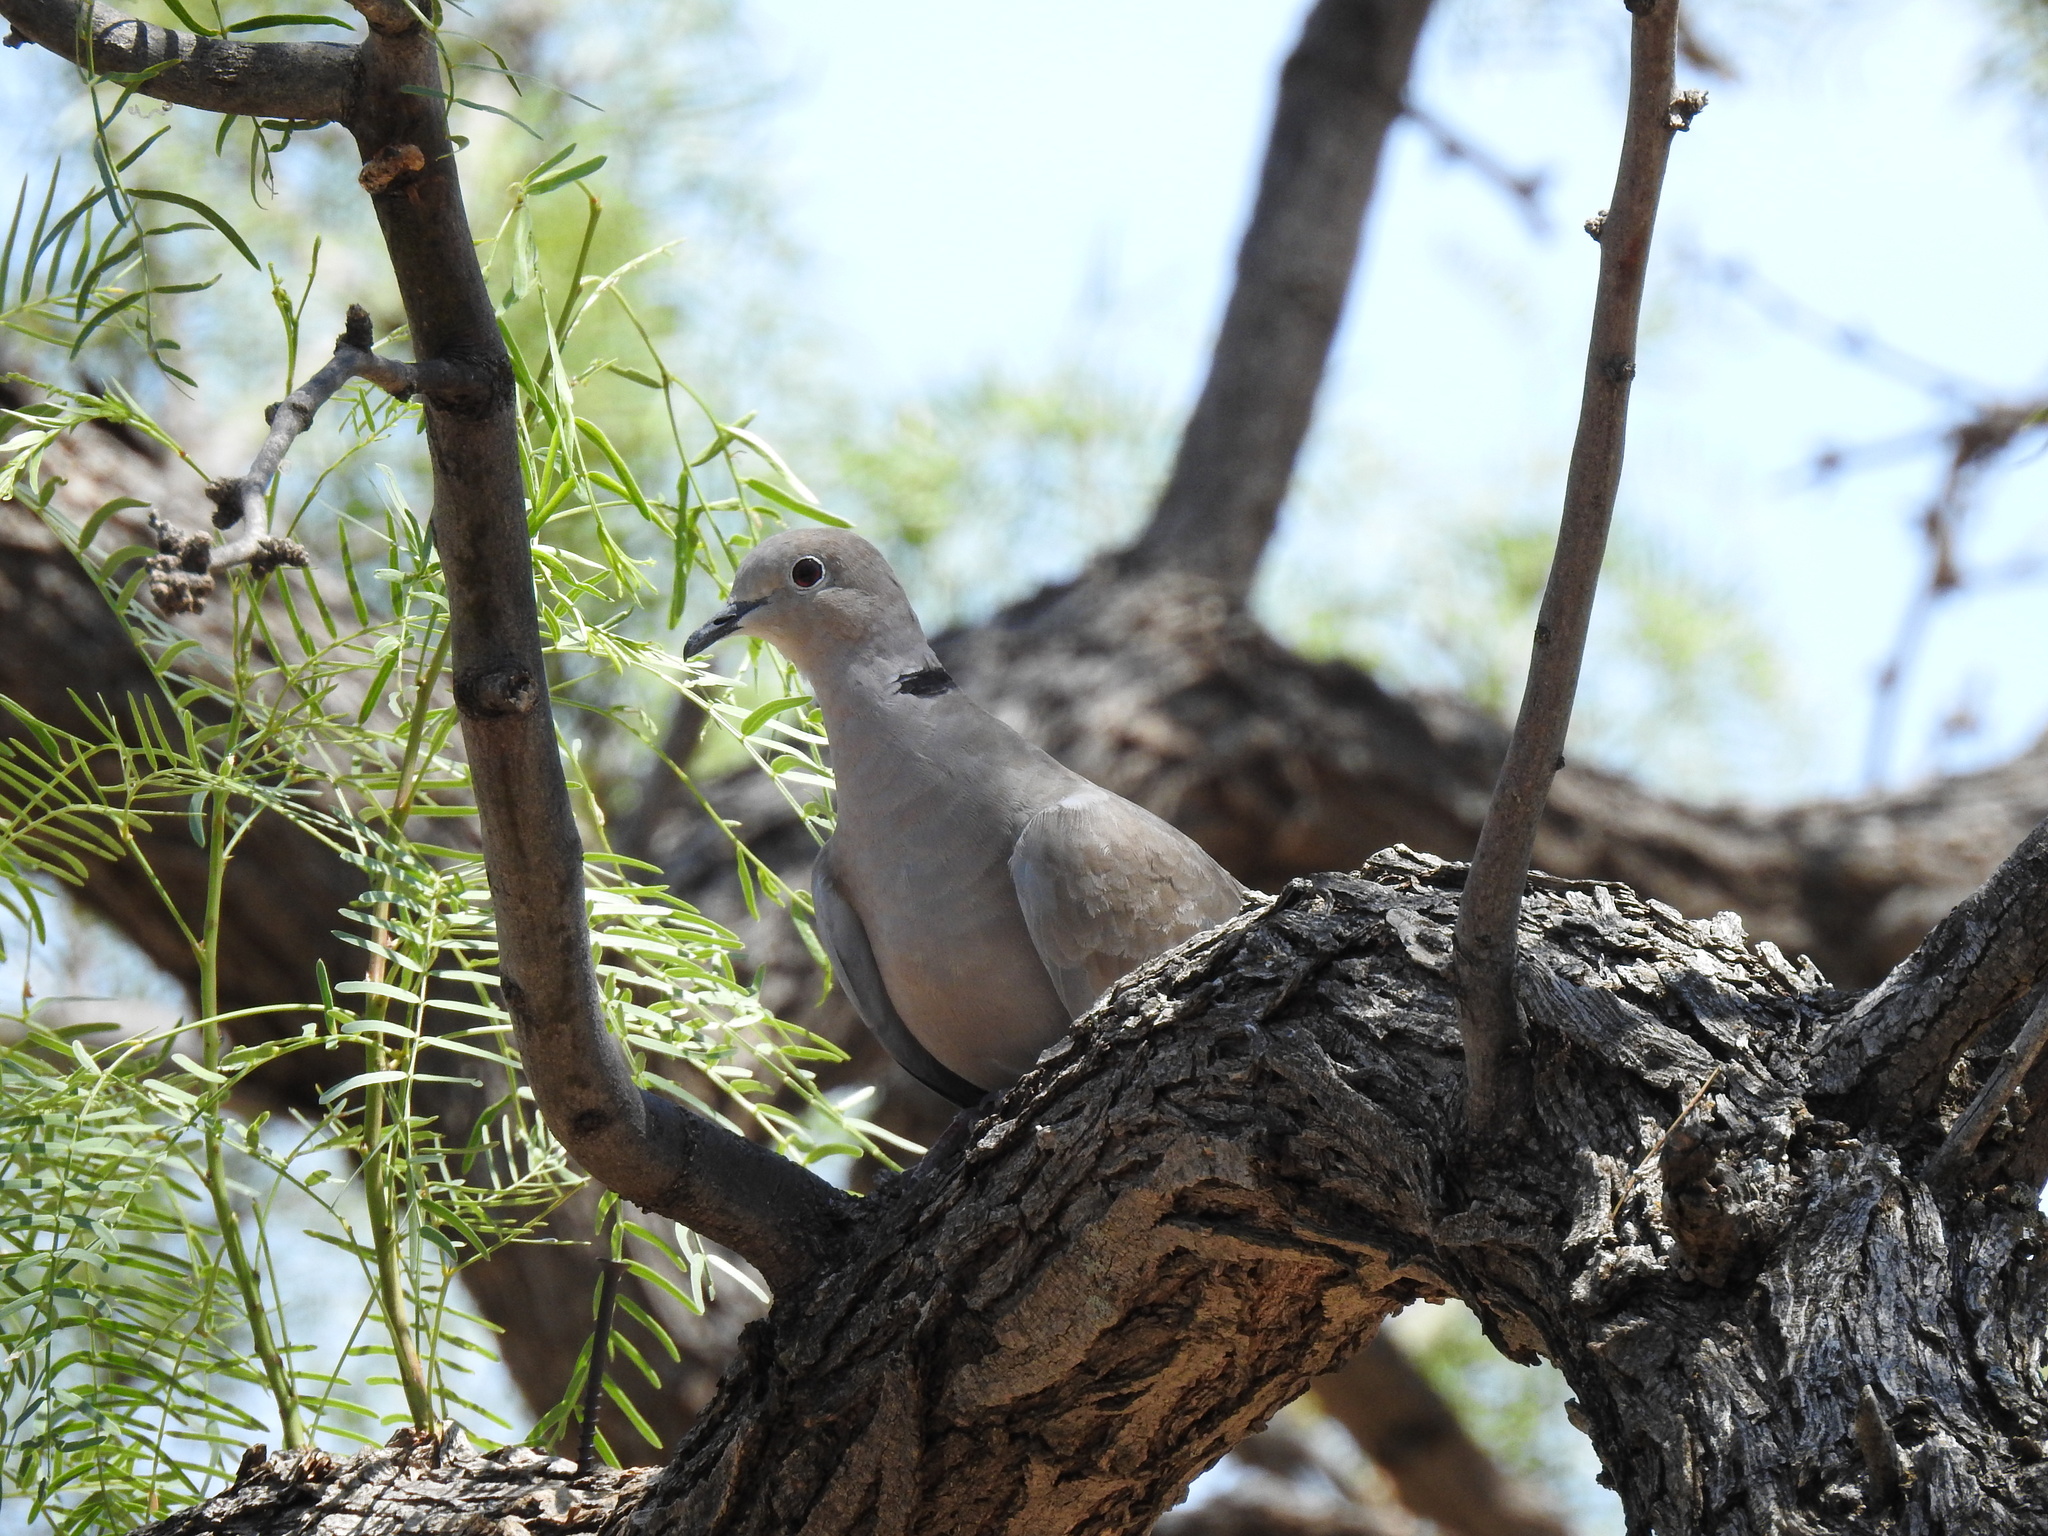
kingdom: Animalia
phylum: Chordata
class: Aves
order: Columbiformes
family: Columbidae
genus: Streptopelia
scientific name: Streptopelia decaocto
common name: Eurasian collared dove
